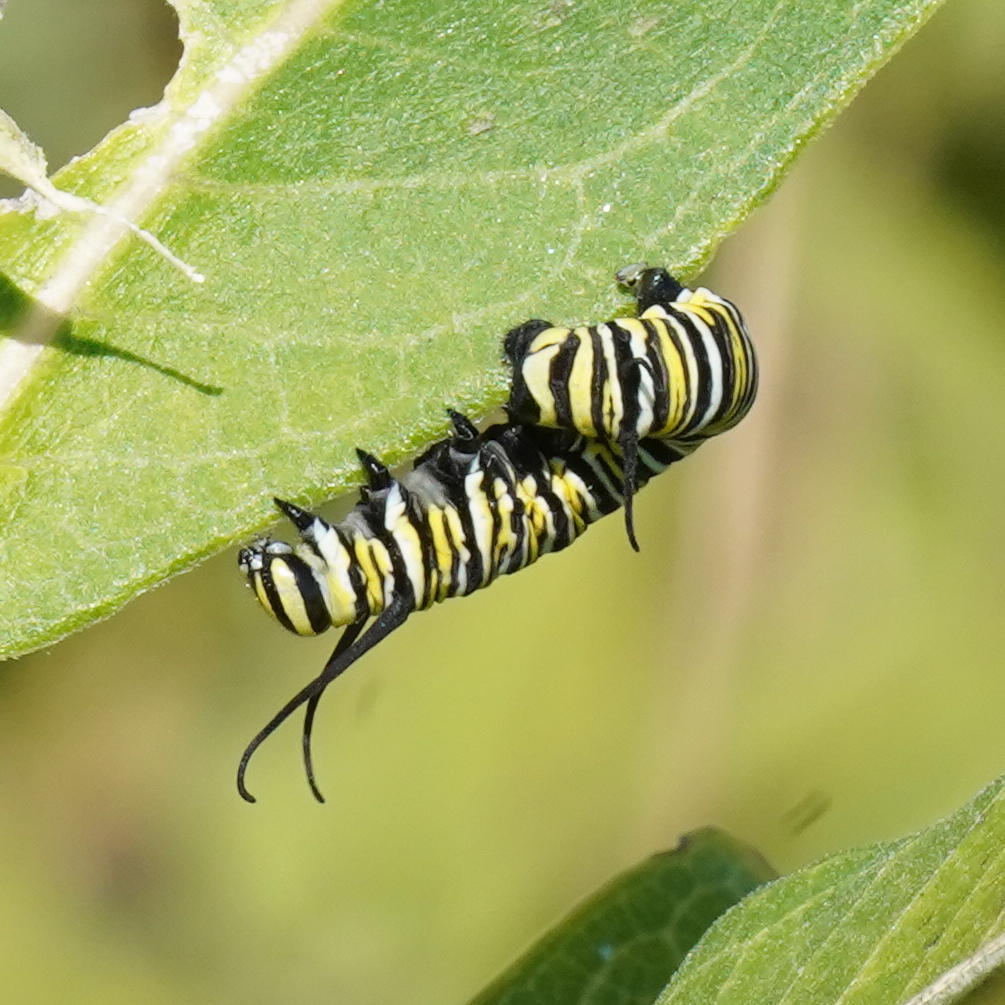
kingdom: Animalia
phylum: Arthropoda
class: Insecta
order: Lepidoptera
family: Nymphalidae
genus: Danaus
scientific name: Danaus plexippus
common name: Monarch
